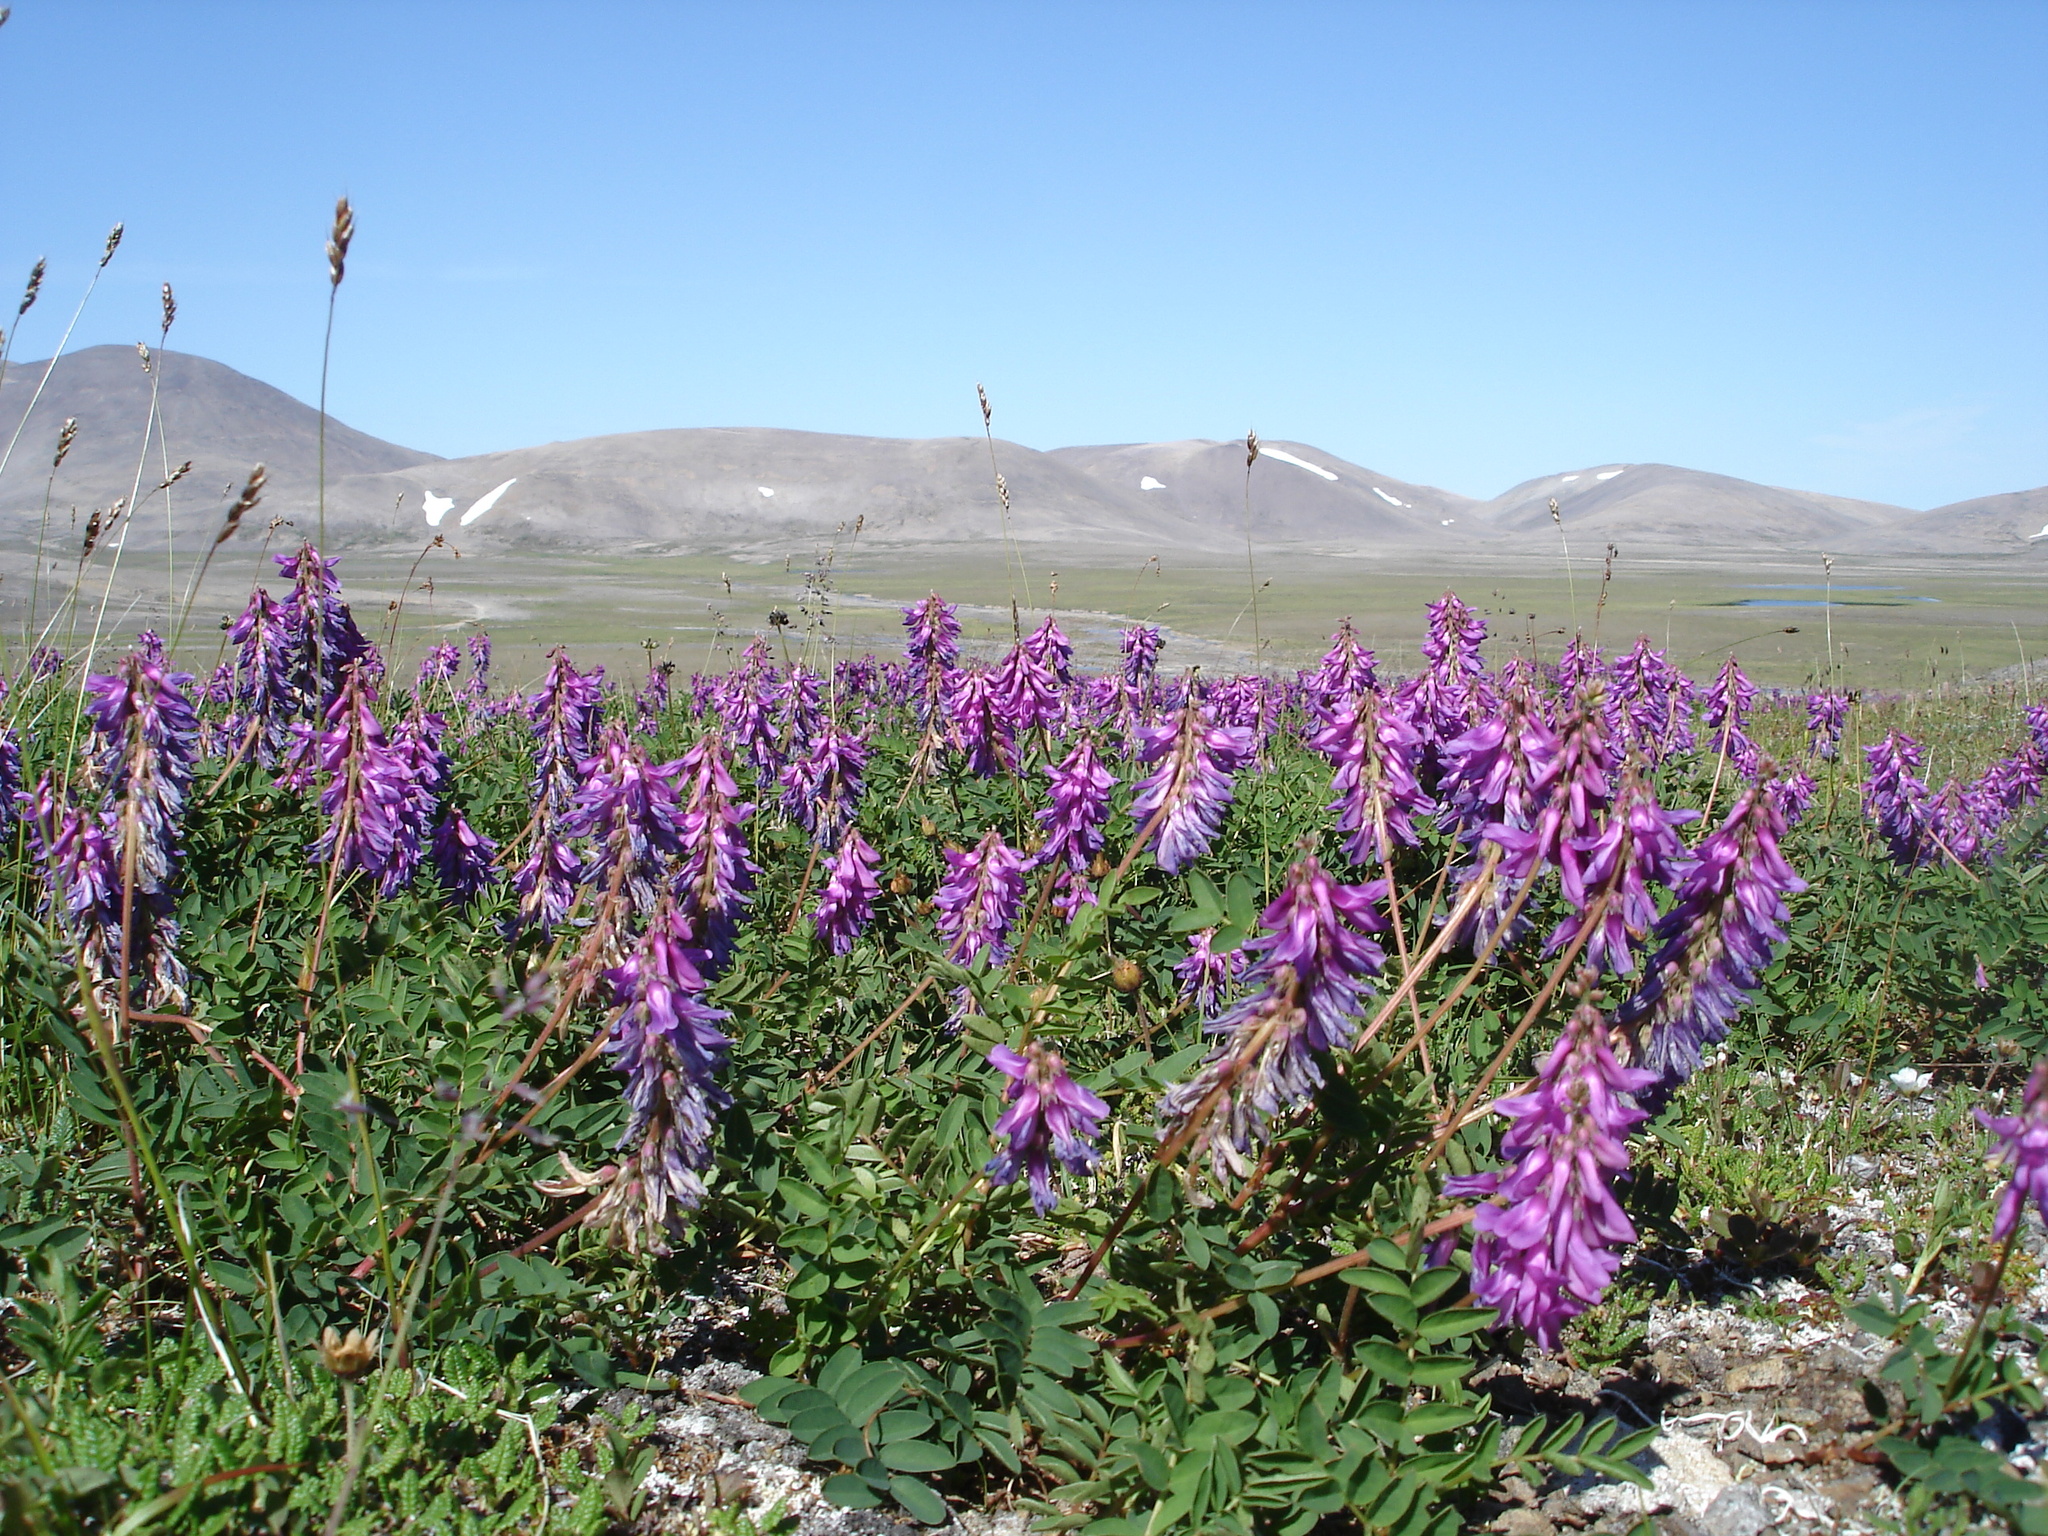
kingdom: Plantae
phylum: Tracheophyta
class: Magnoliopsida
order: Fabales
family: Fabaceae
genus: Hedysarum
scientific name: Hedysarum hedysaroides
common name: Alpine french-honeysuckle
